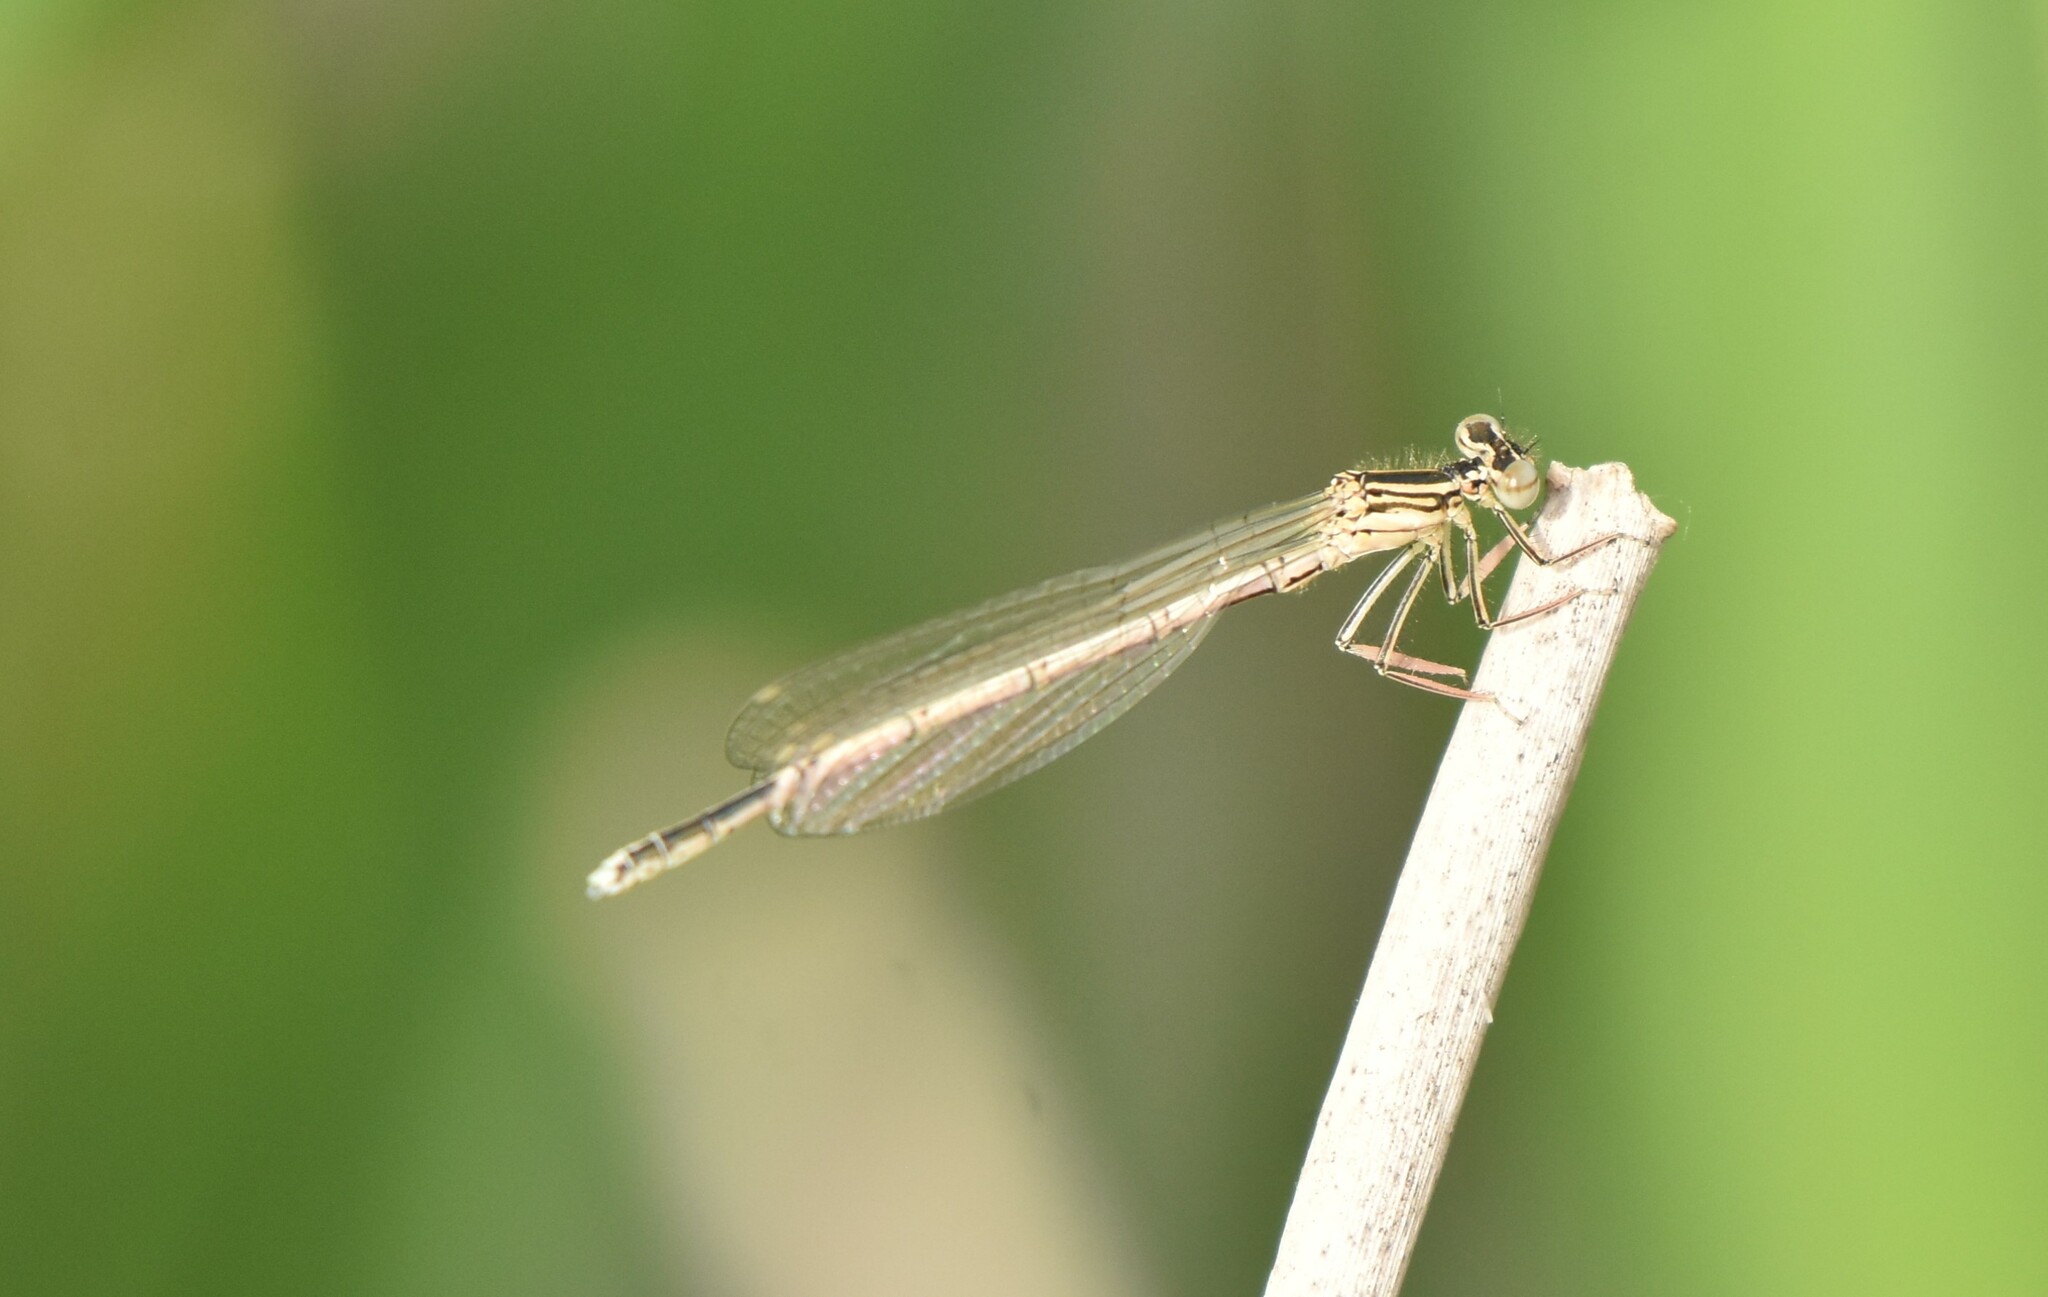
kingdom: Animalia
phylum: Arthropoda
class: Insecta
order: Odonata
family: Platycnemididae
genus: Platycnemis
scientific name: Platycnemis pennipes
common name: White-legged damselfly
